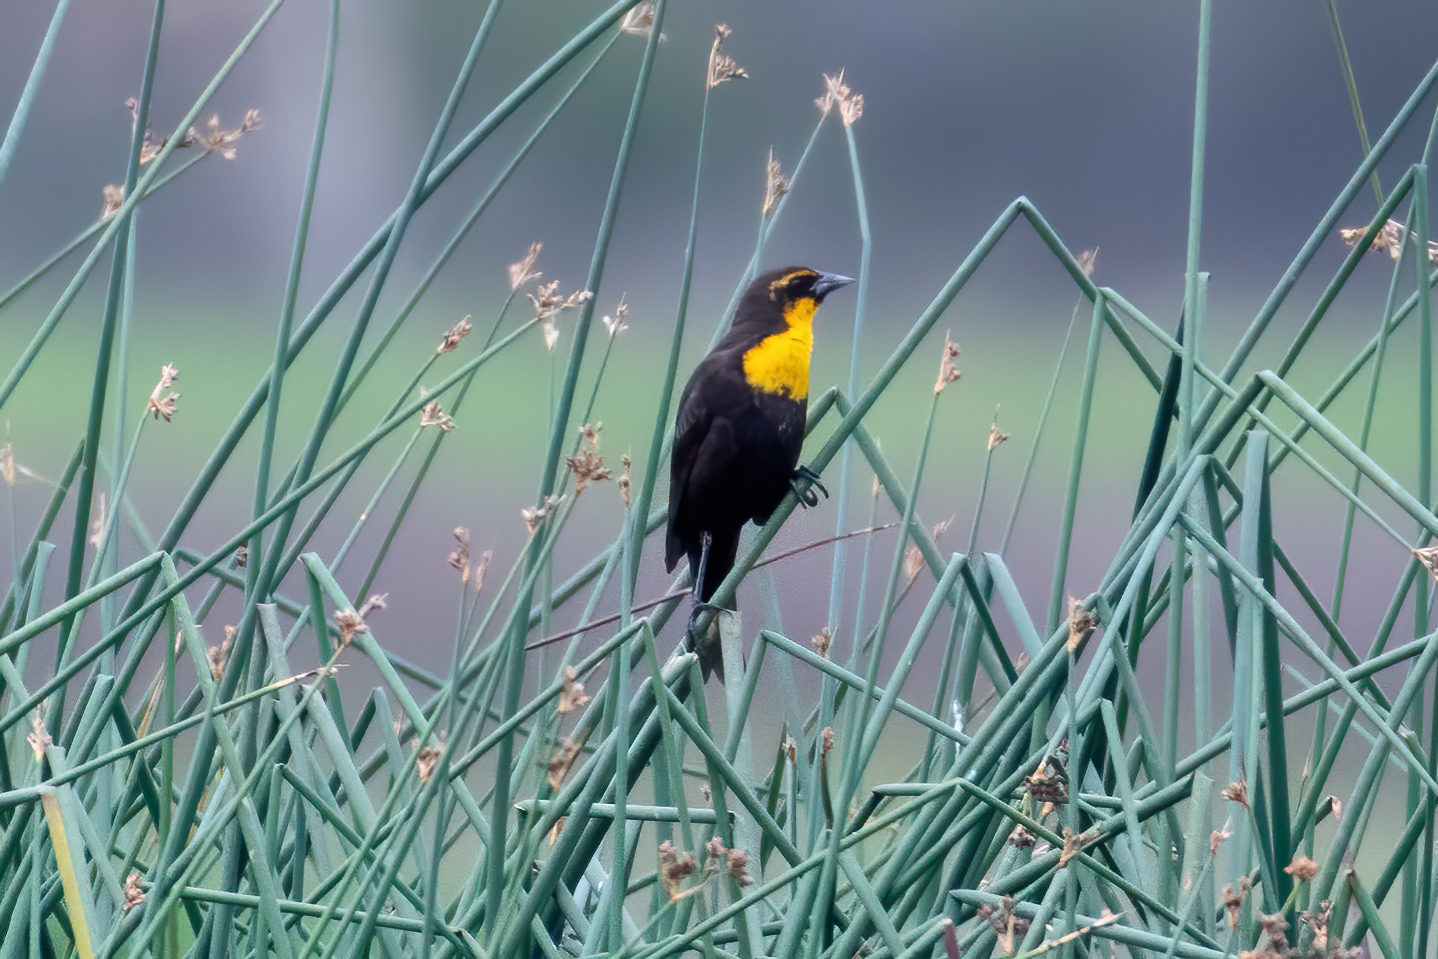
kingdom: Animalia
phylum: Chordata
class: Aves
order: Passeriformes
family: Icteridae
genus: Xanthocephalus
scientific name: Xanthocephalus xanthocephalus
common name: Yellow-headed blackbird
